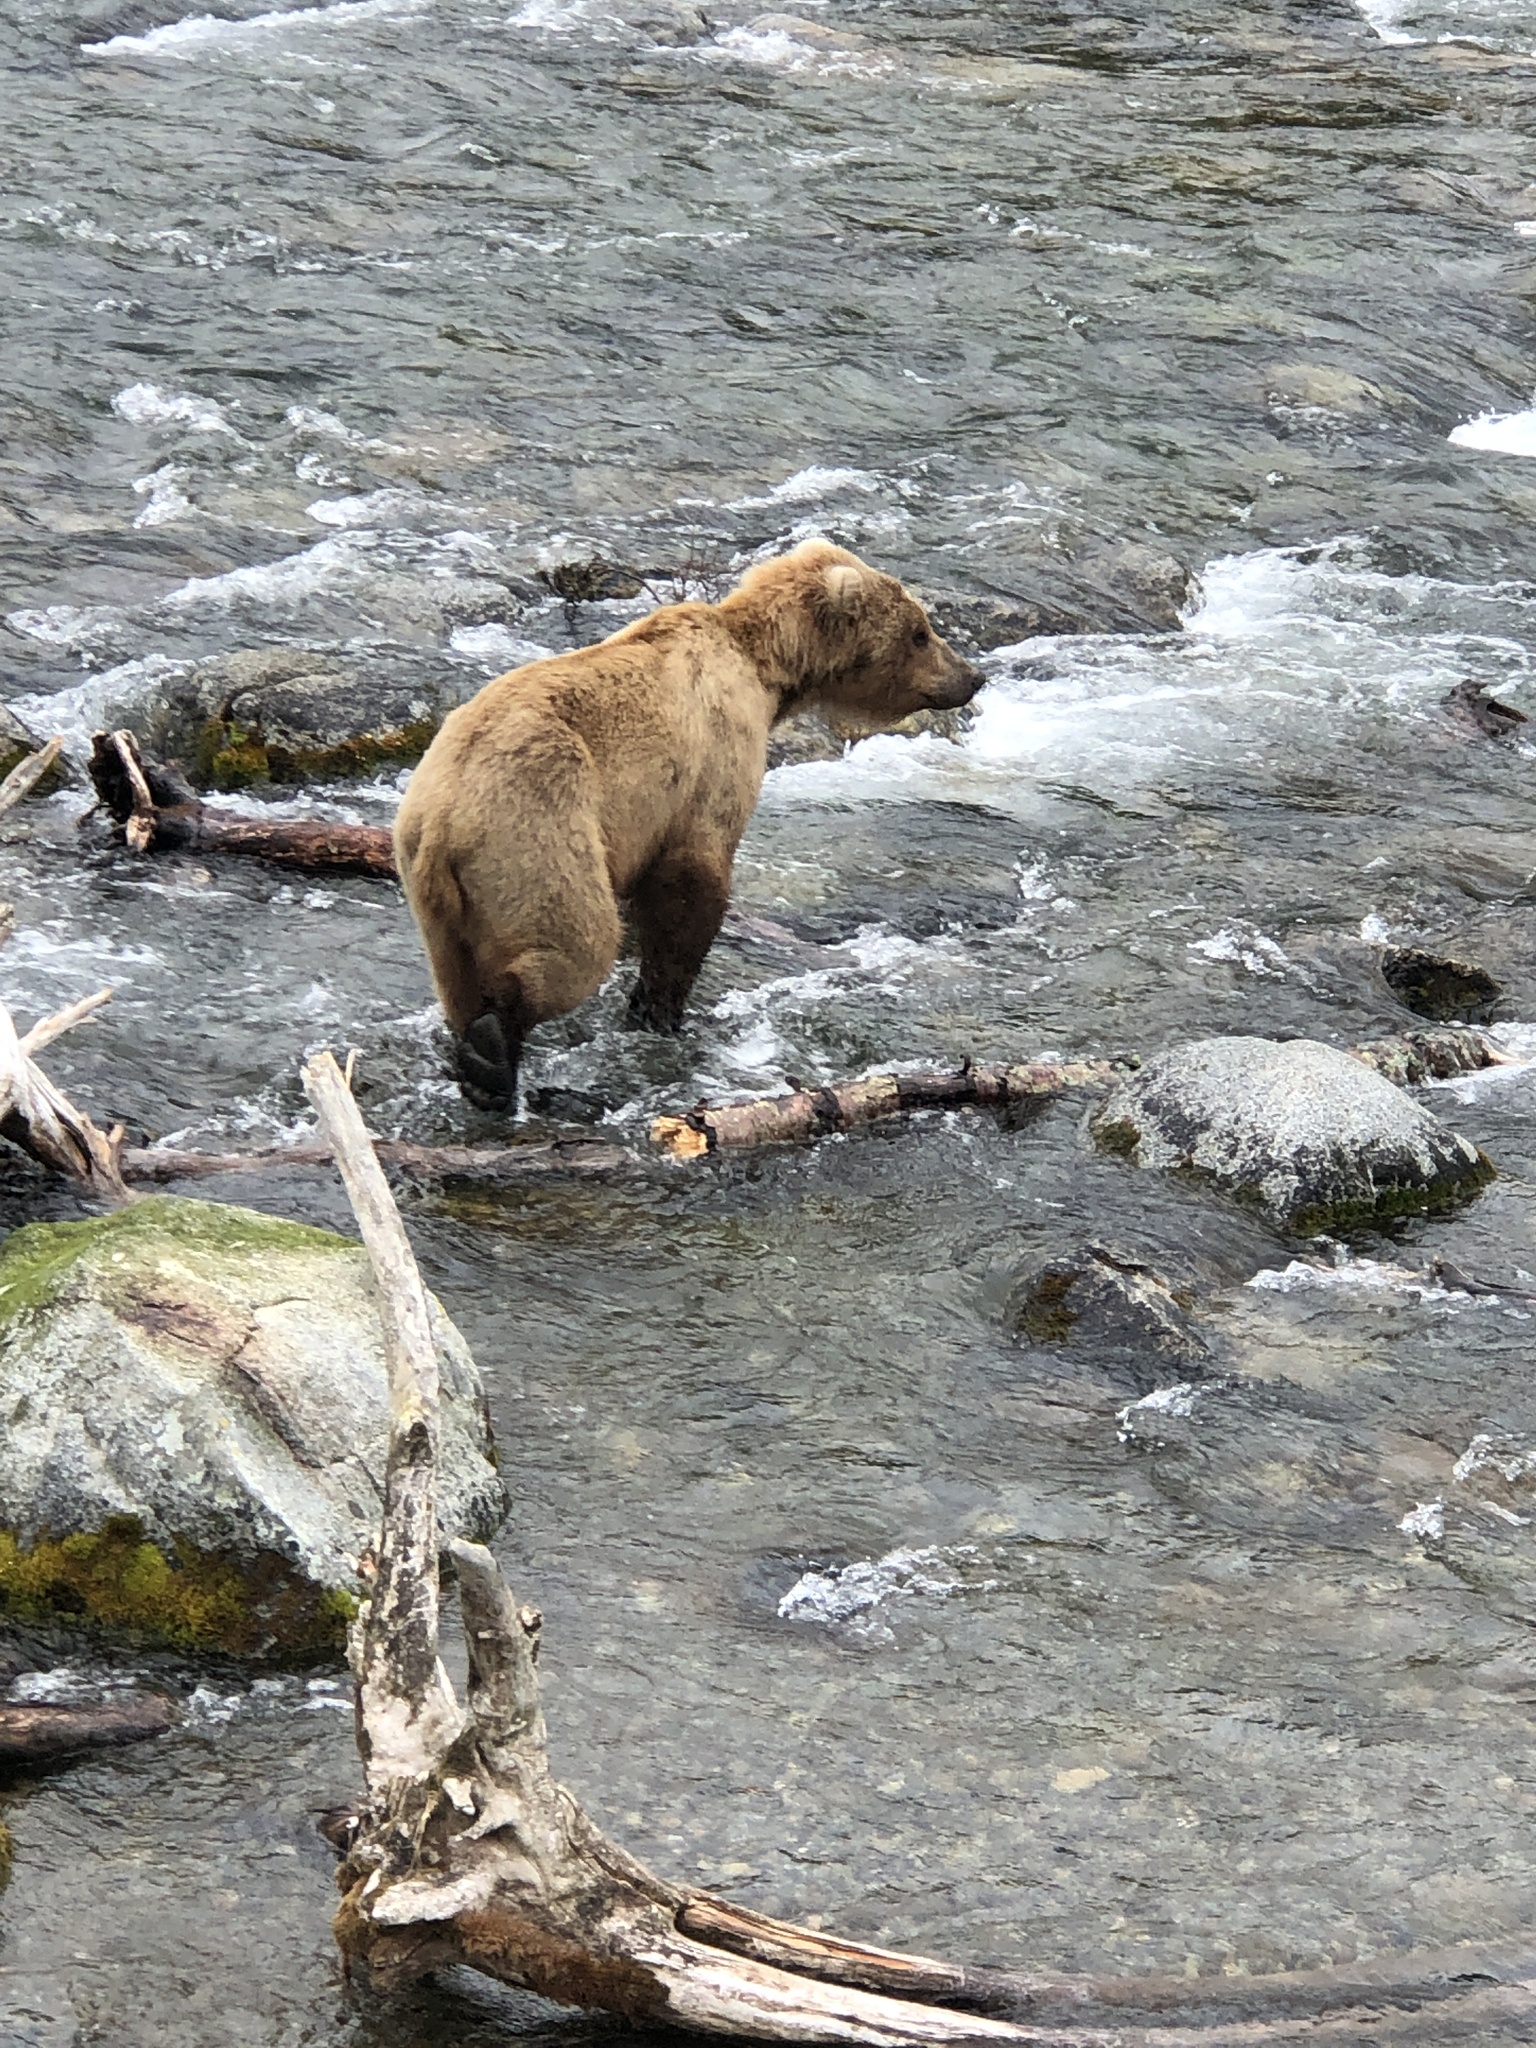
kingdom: Animalia
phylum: Chordata
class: Mammalia
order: Carnivora
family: Ursidae
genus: Ursus
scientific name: Ursus arctos
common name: Brown bear
